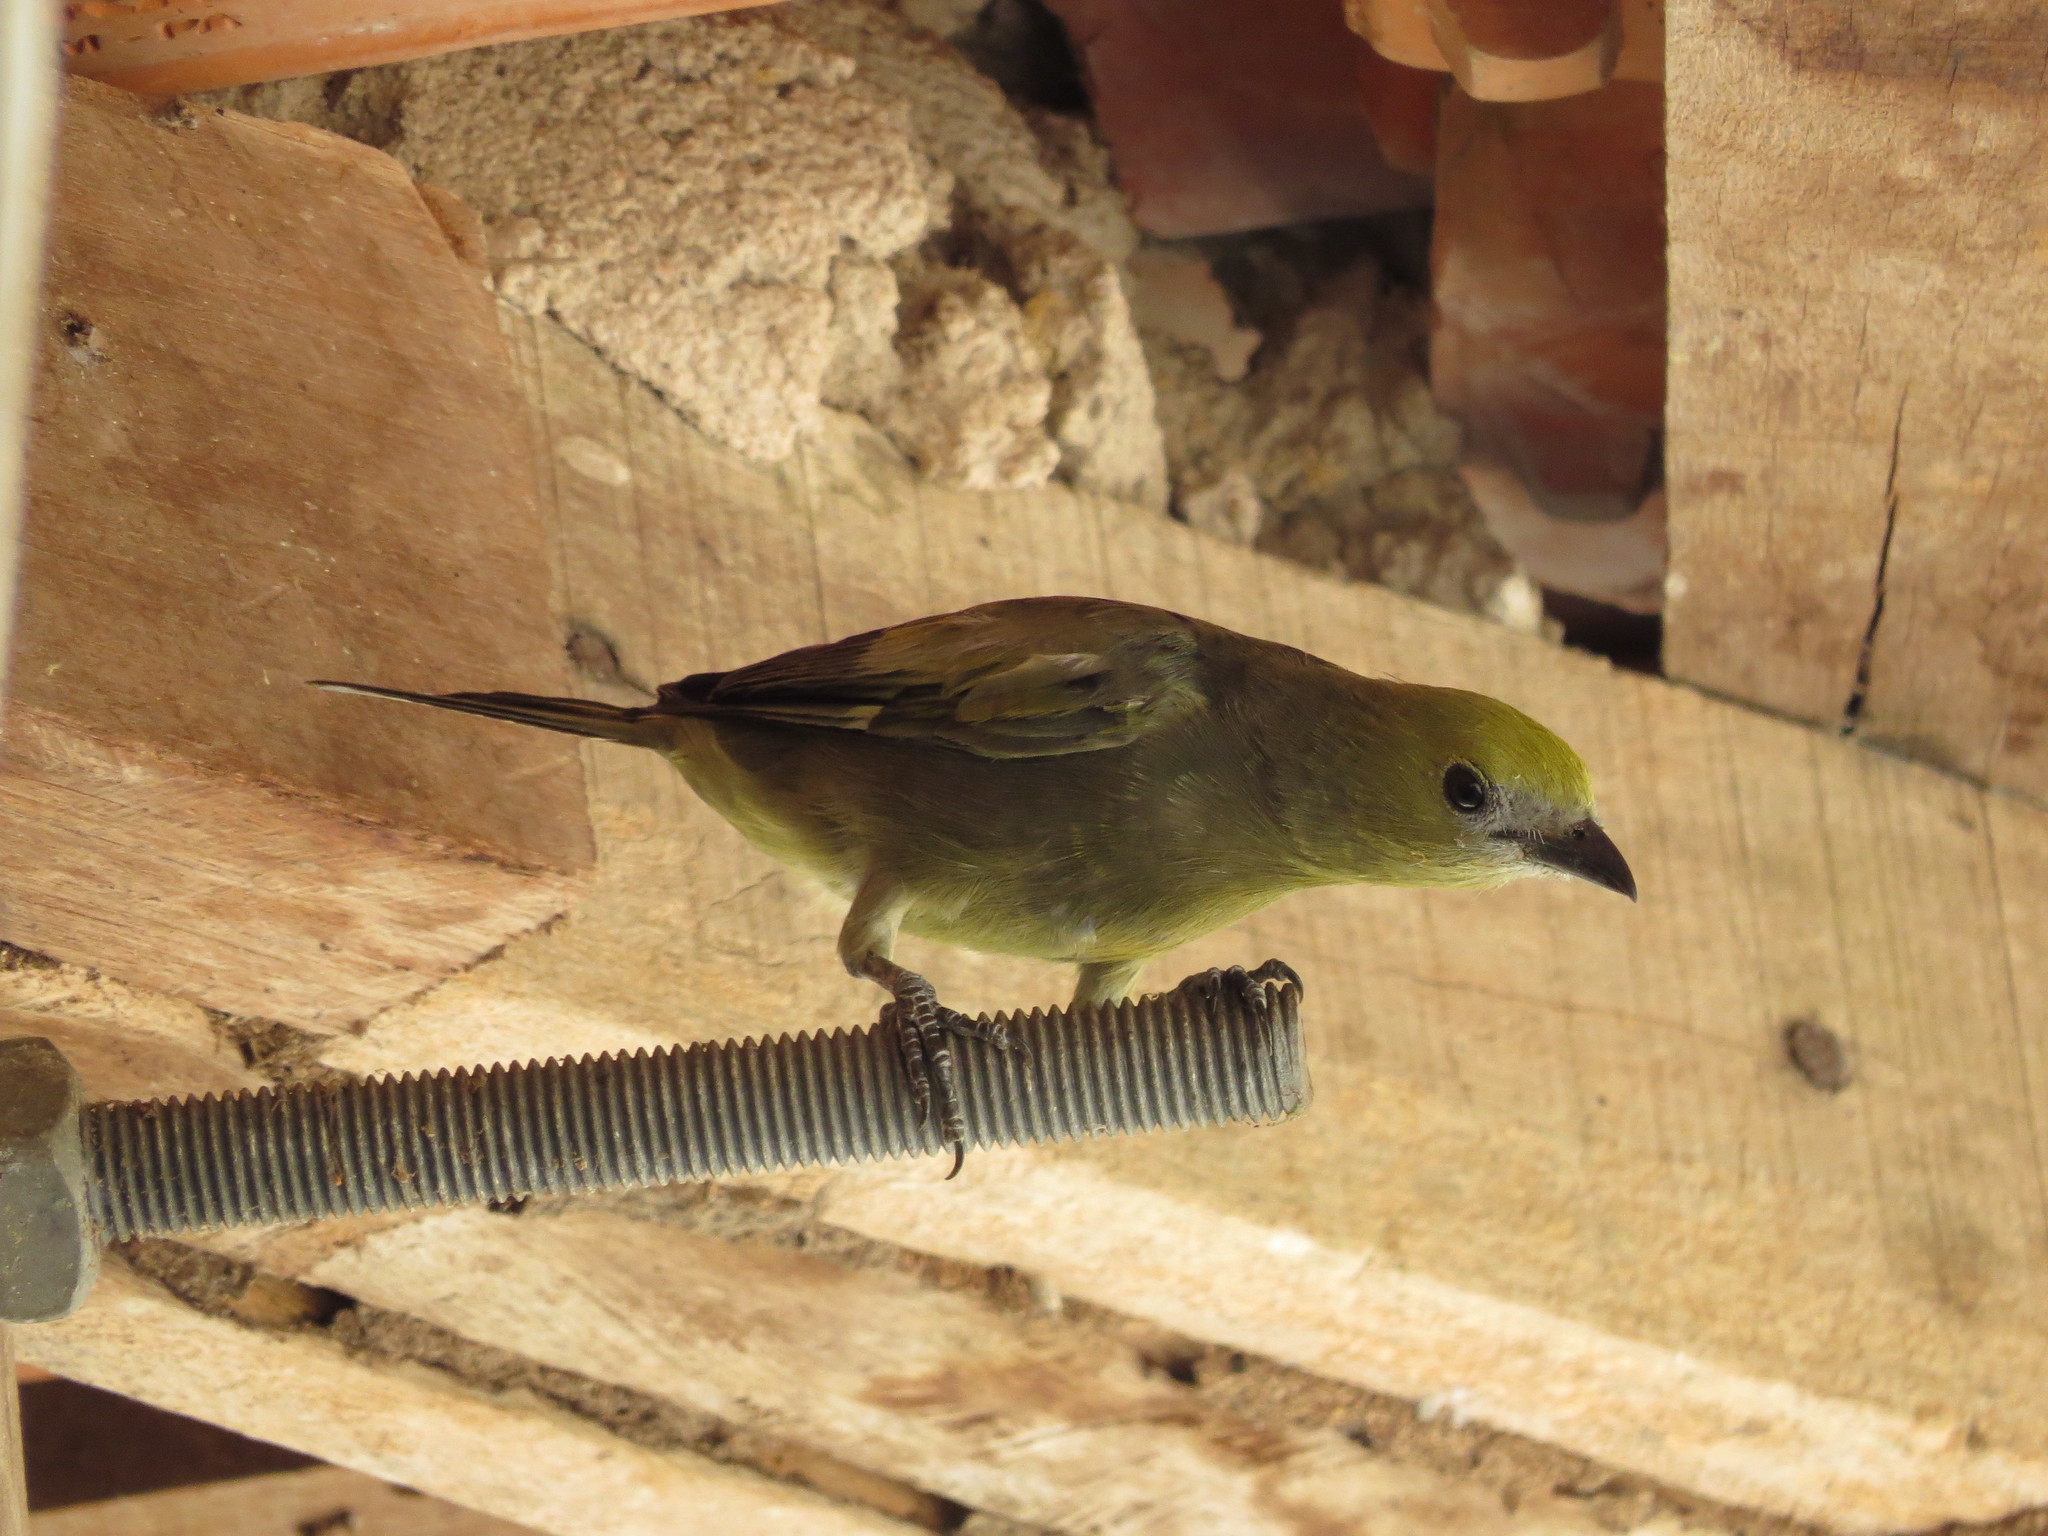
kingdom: Animalia
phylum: Chordata
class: Aves
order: Passeriformes
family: Thraupidae
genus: Thraupis
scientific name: Thraupis palmarum
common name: Palm tanager
